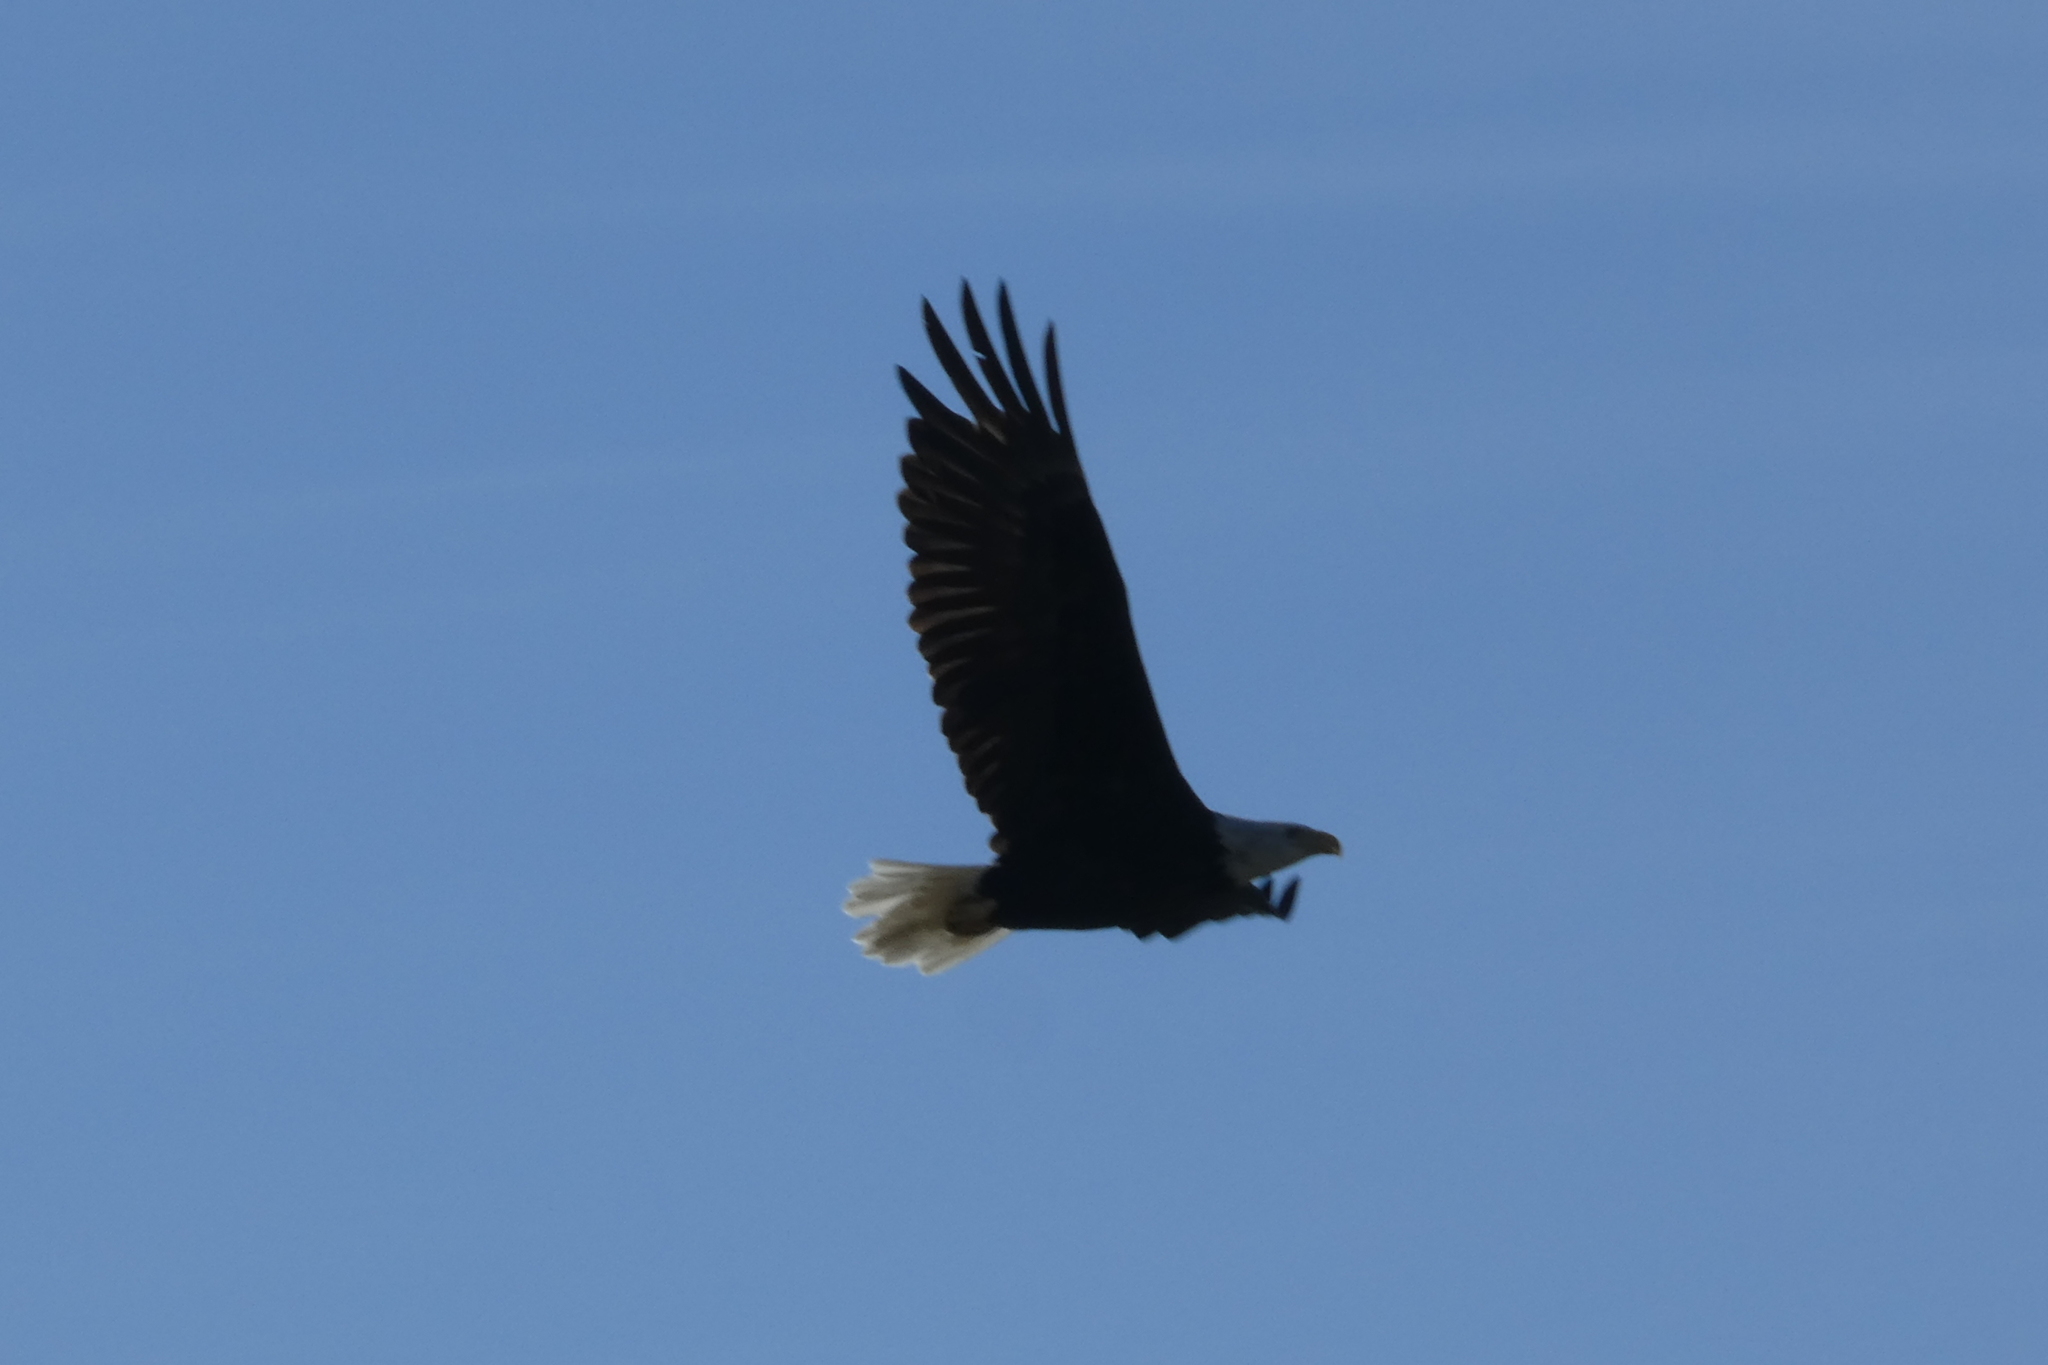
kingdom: Animalia
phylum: Chordata
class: Aves
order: Accipitriformes
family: Accipitridae
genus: Haliaeetus
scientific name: Haliaeetus leucocephalus
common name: Bald eagle
